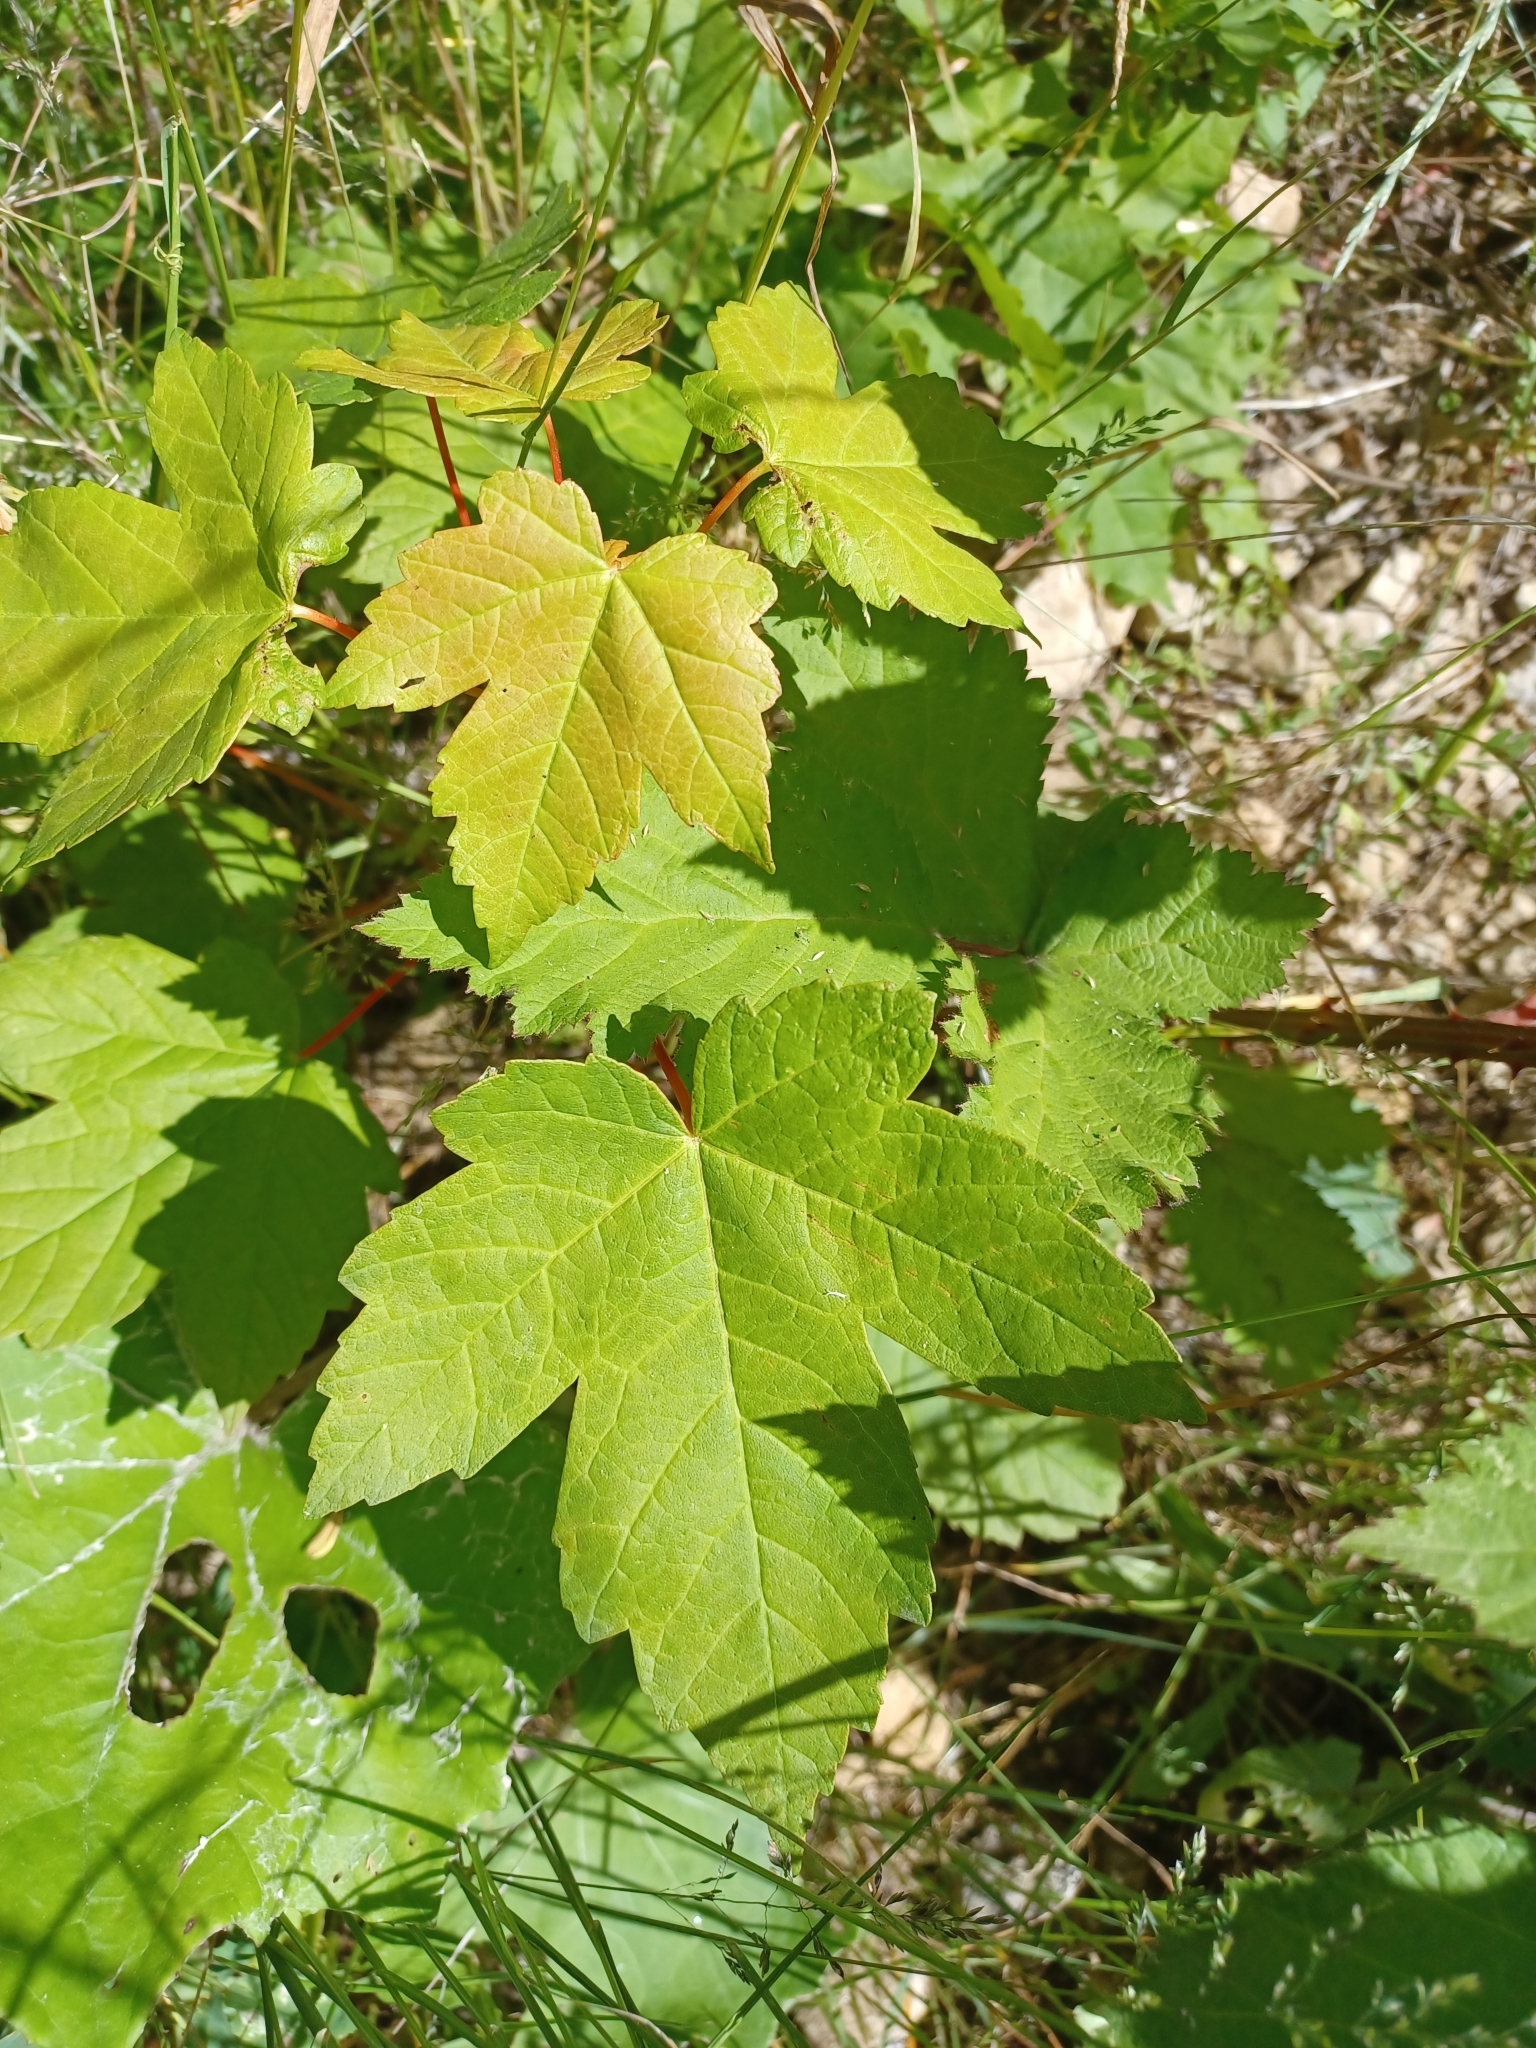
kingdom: Plantae
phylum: Tracheophyta
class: Magnoliopsida
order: Sapindales
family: Sapindaceae
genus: Acer
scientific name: Acer pseudoplatanus
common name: Sycamore
